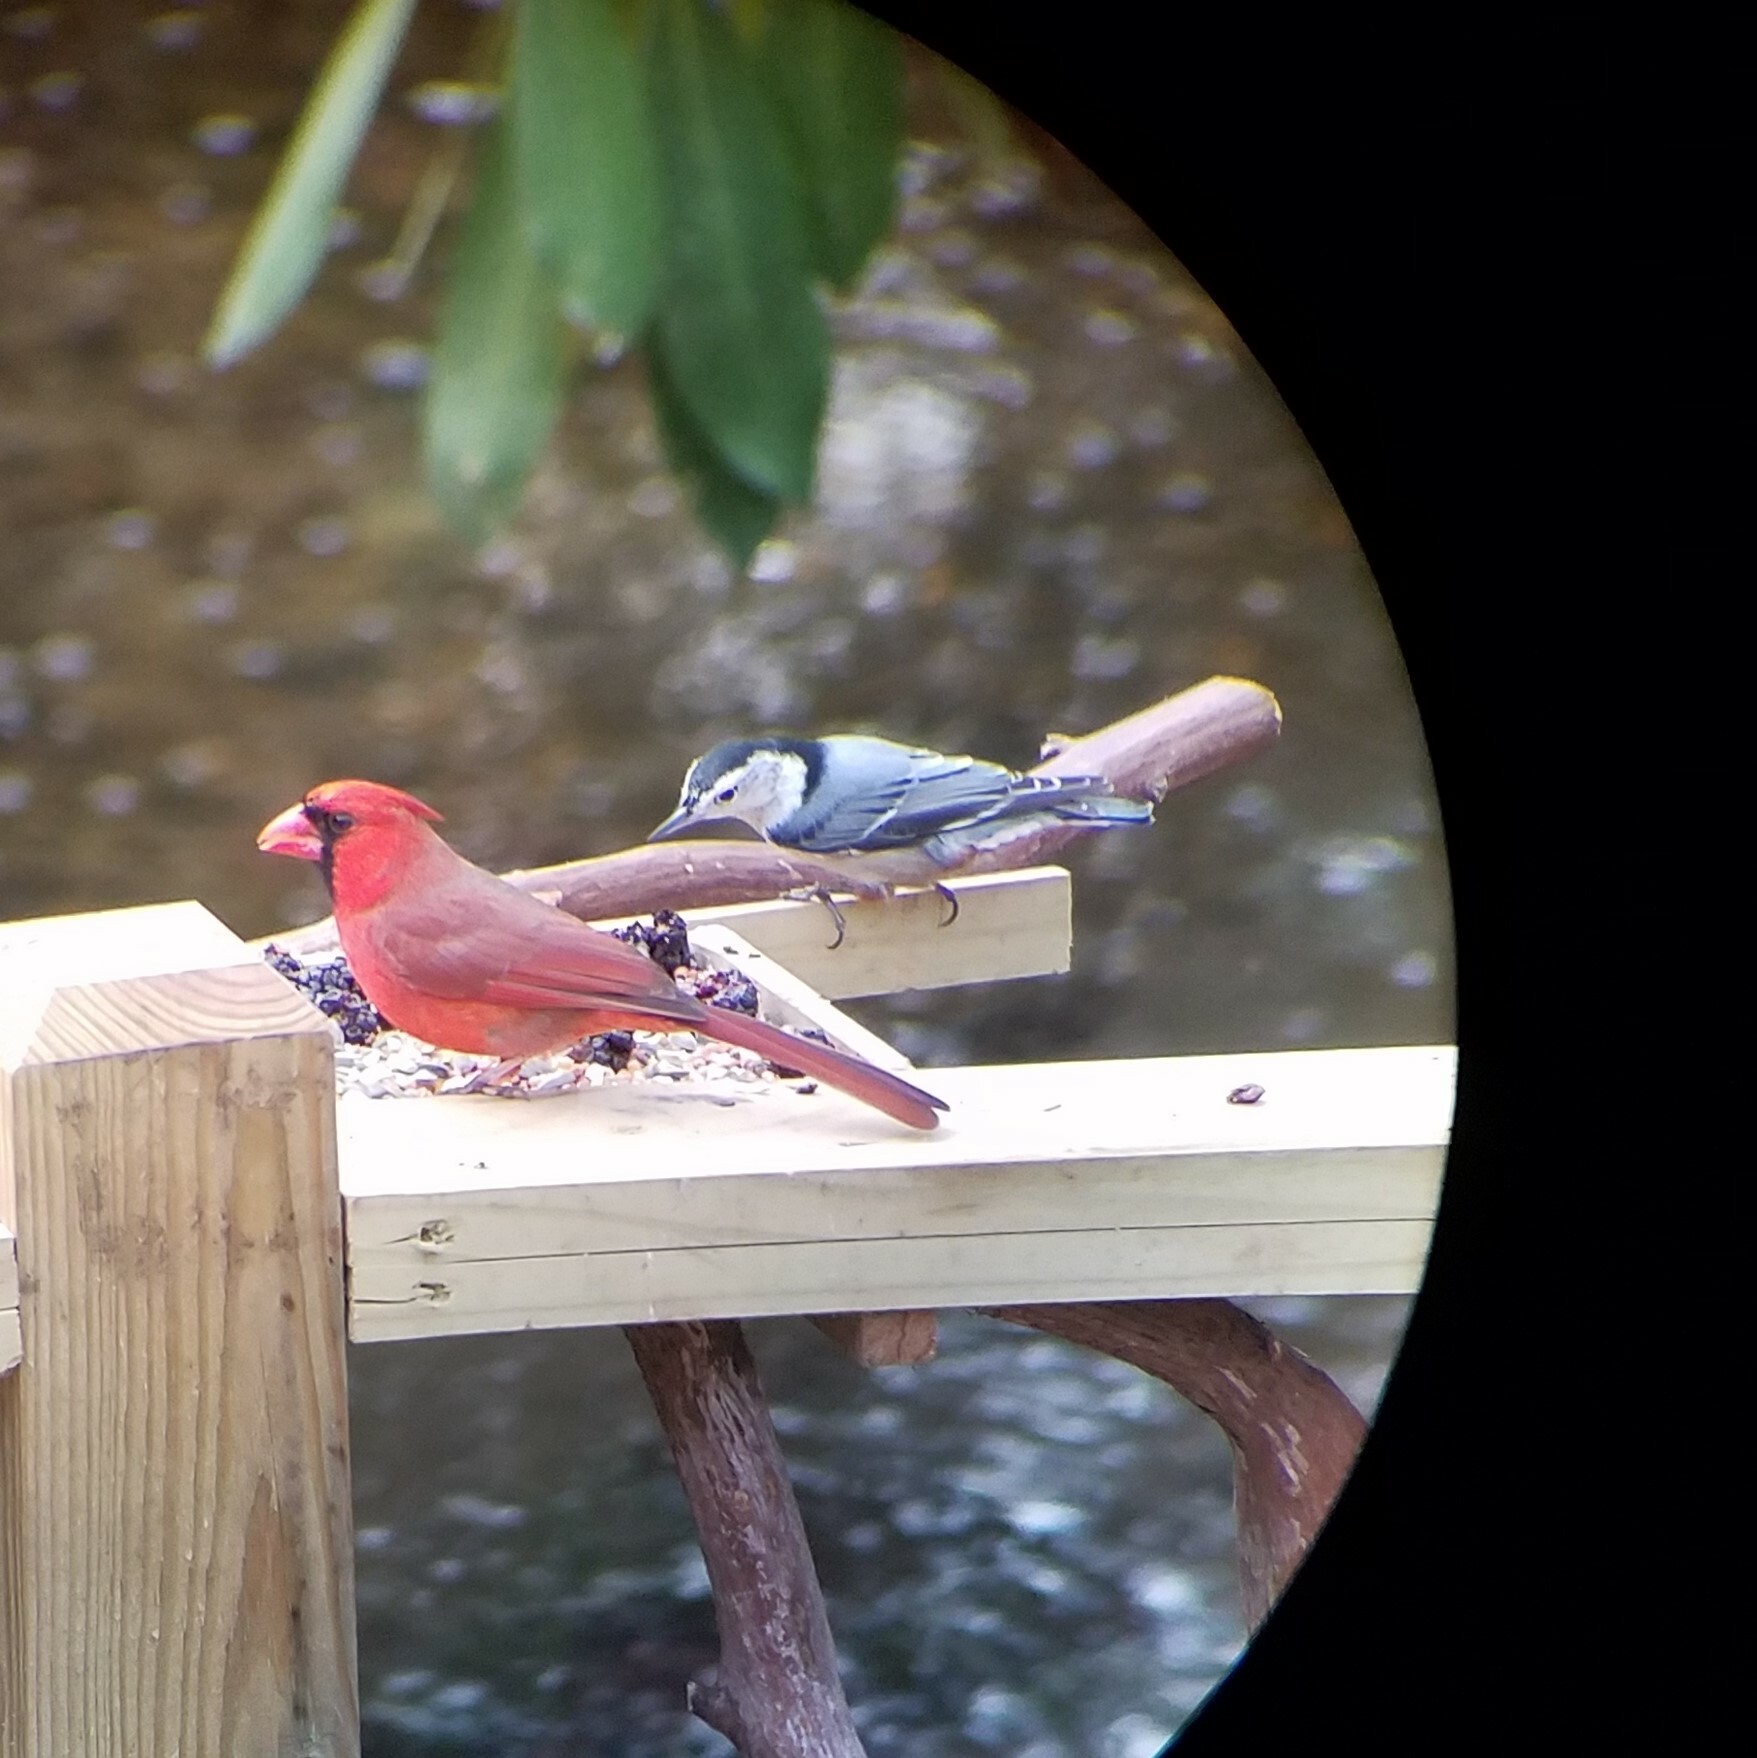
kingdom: Animalia
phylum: Chordata
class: Aves
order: Passeriformes
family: Sittidae
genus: Sitta
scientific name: Sitta carolinensis
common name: White-breasted nuthatch
